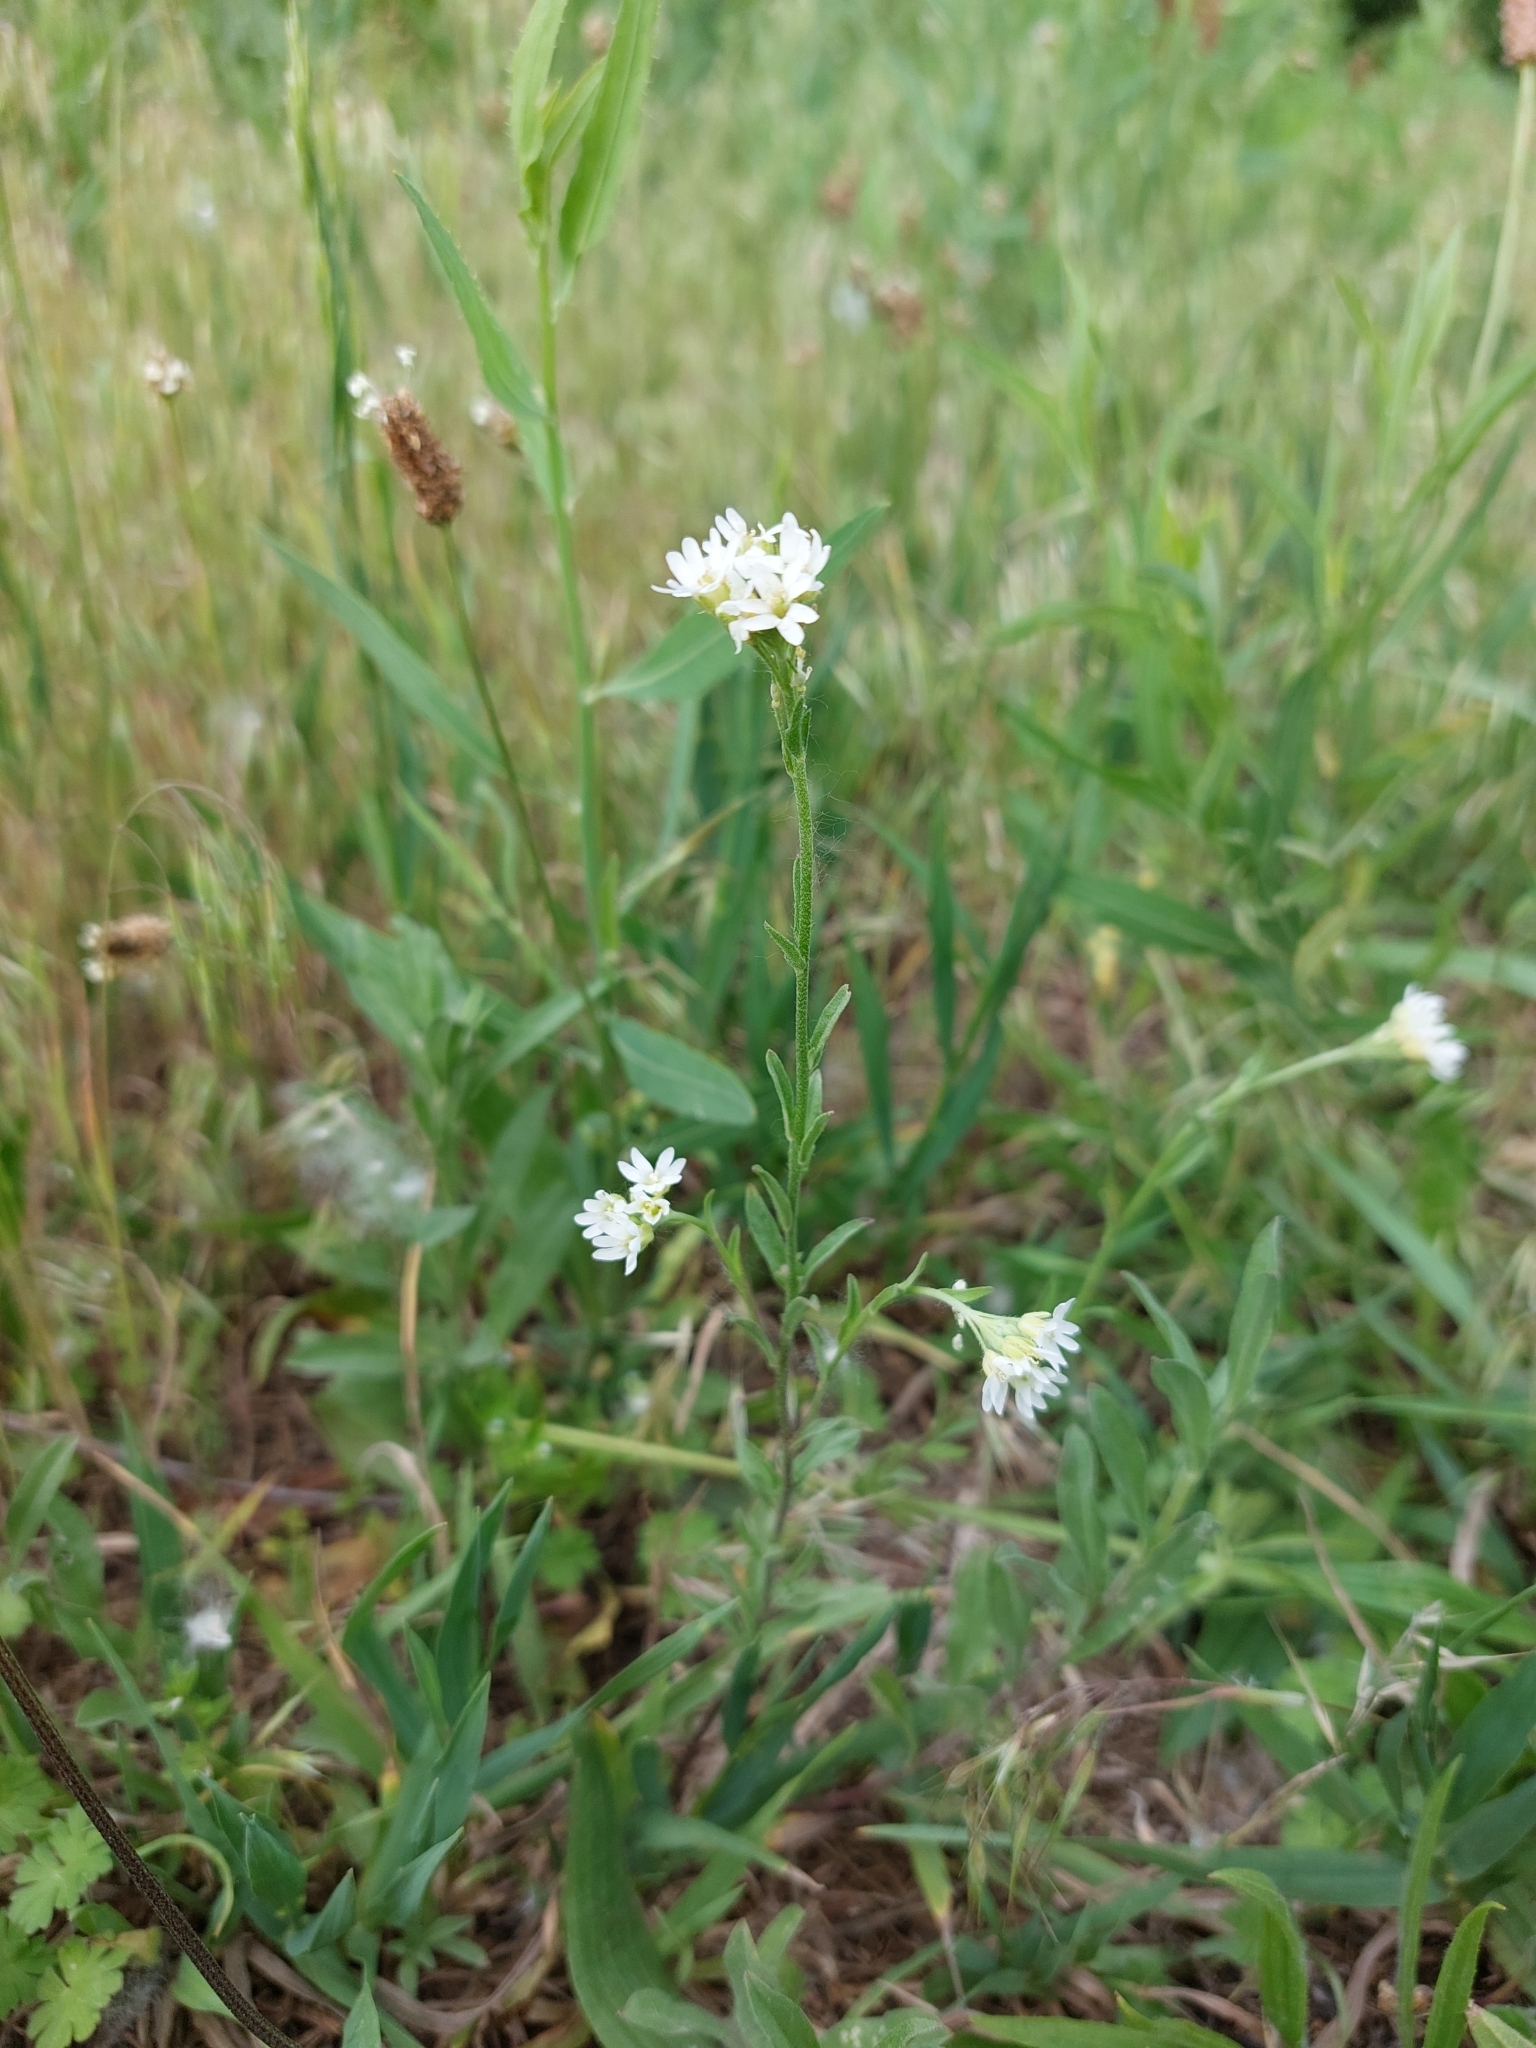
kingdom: Plantae
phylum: Tracheophyta
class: Magnoliopsida
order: Brassicales
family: Brassicaceae
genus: Berteroa
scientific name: Berteroa incana
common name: Hoary alison
